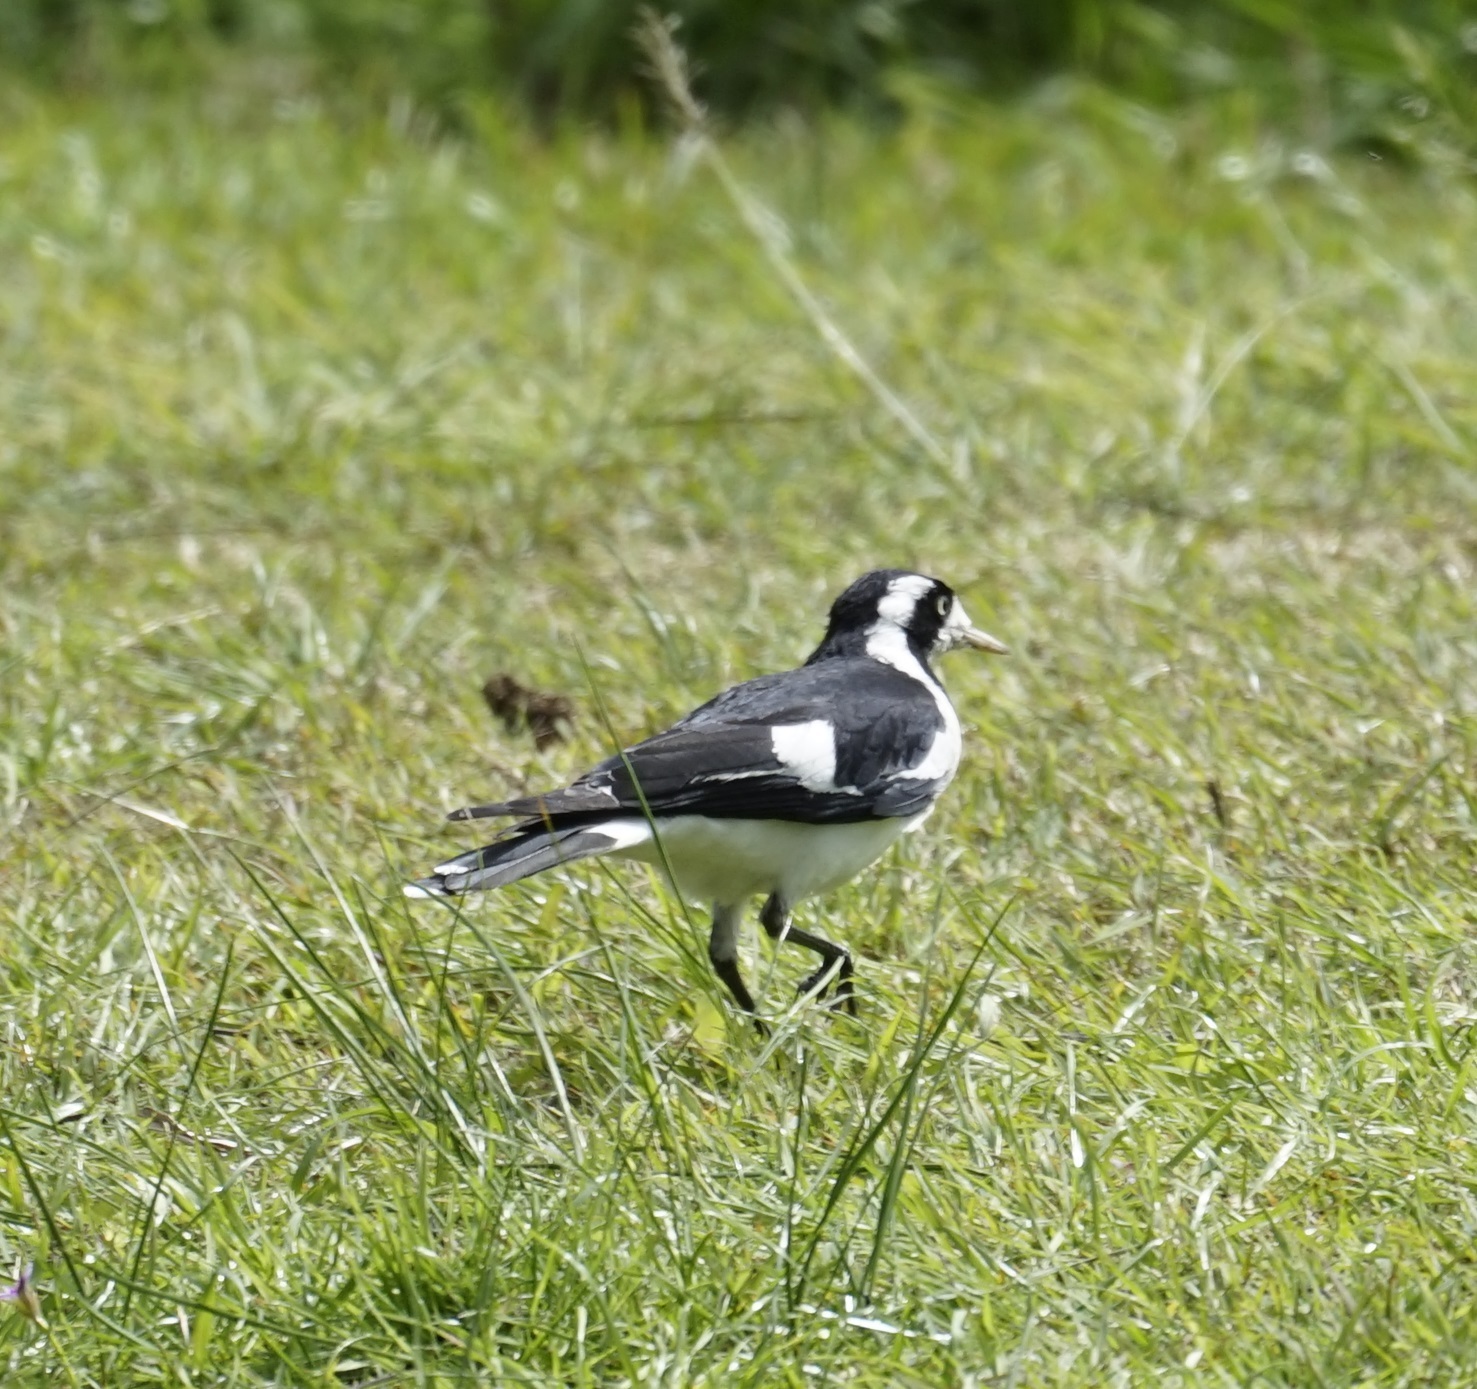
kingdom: Animalia
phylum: Chordata
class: Aves
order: Passeriformes
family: Monarchidae
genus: Grallina
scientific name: Grallina cyanoleuca
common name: Magpie-lark
